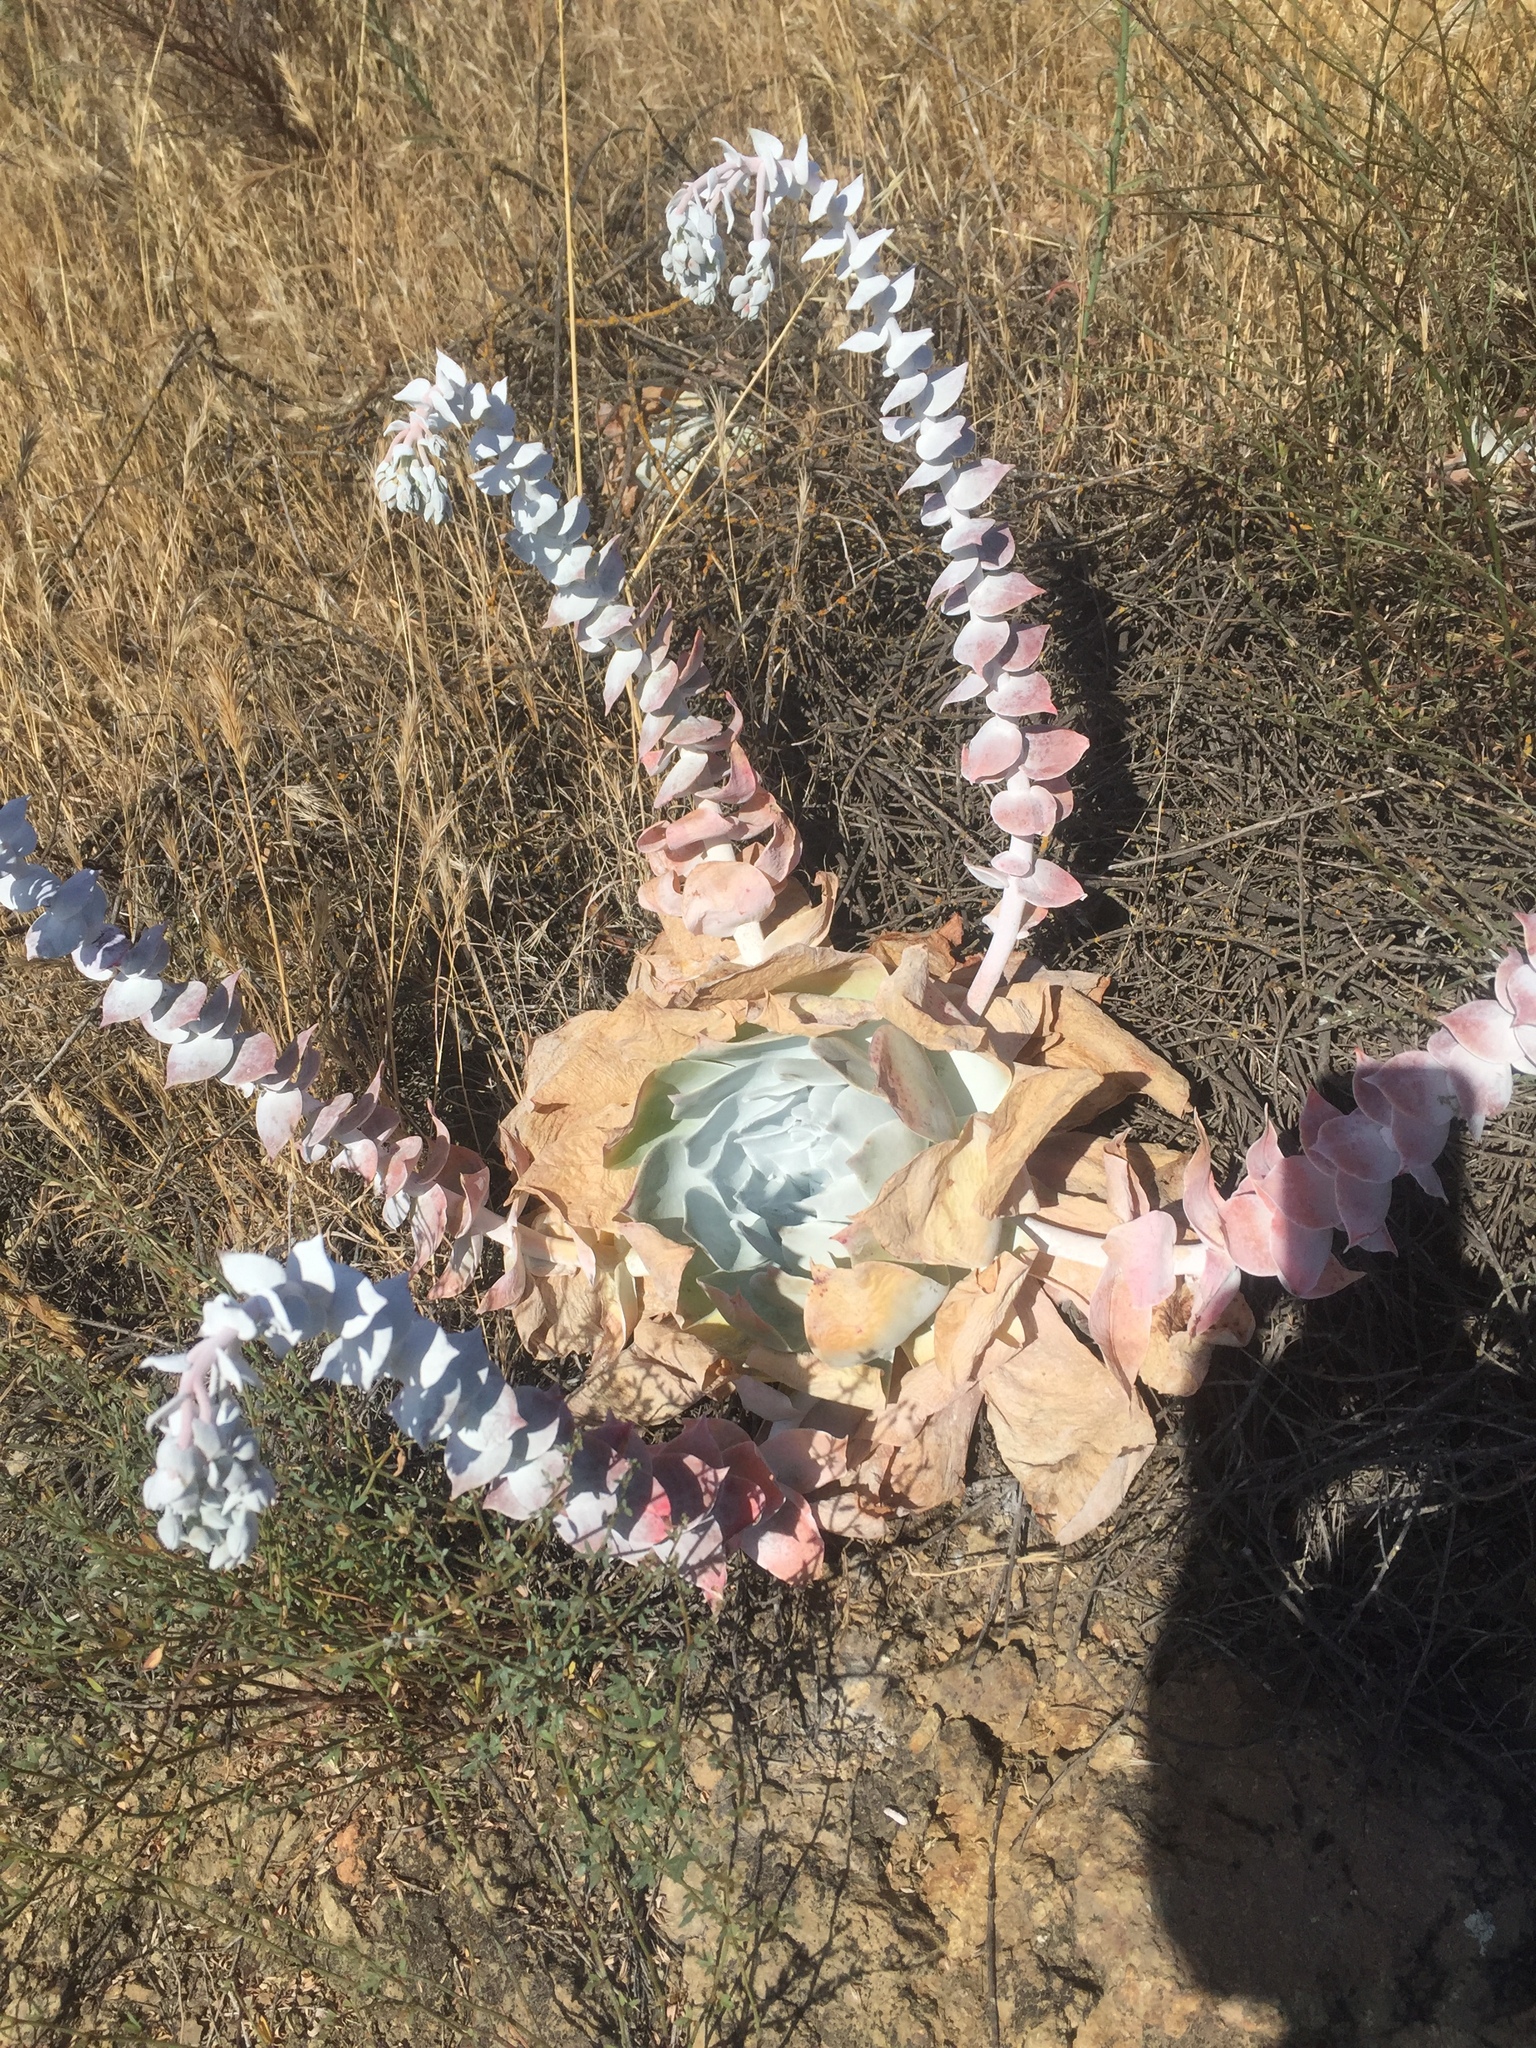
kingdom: Plantae
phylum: Tracheophyta
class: Magnoliopsida
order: Saxifragales
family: Crassulaceae
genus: Dudleya
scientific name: Dudleya pulverulenta
